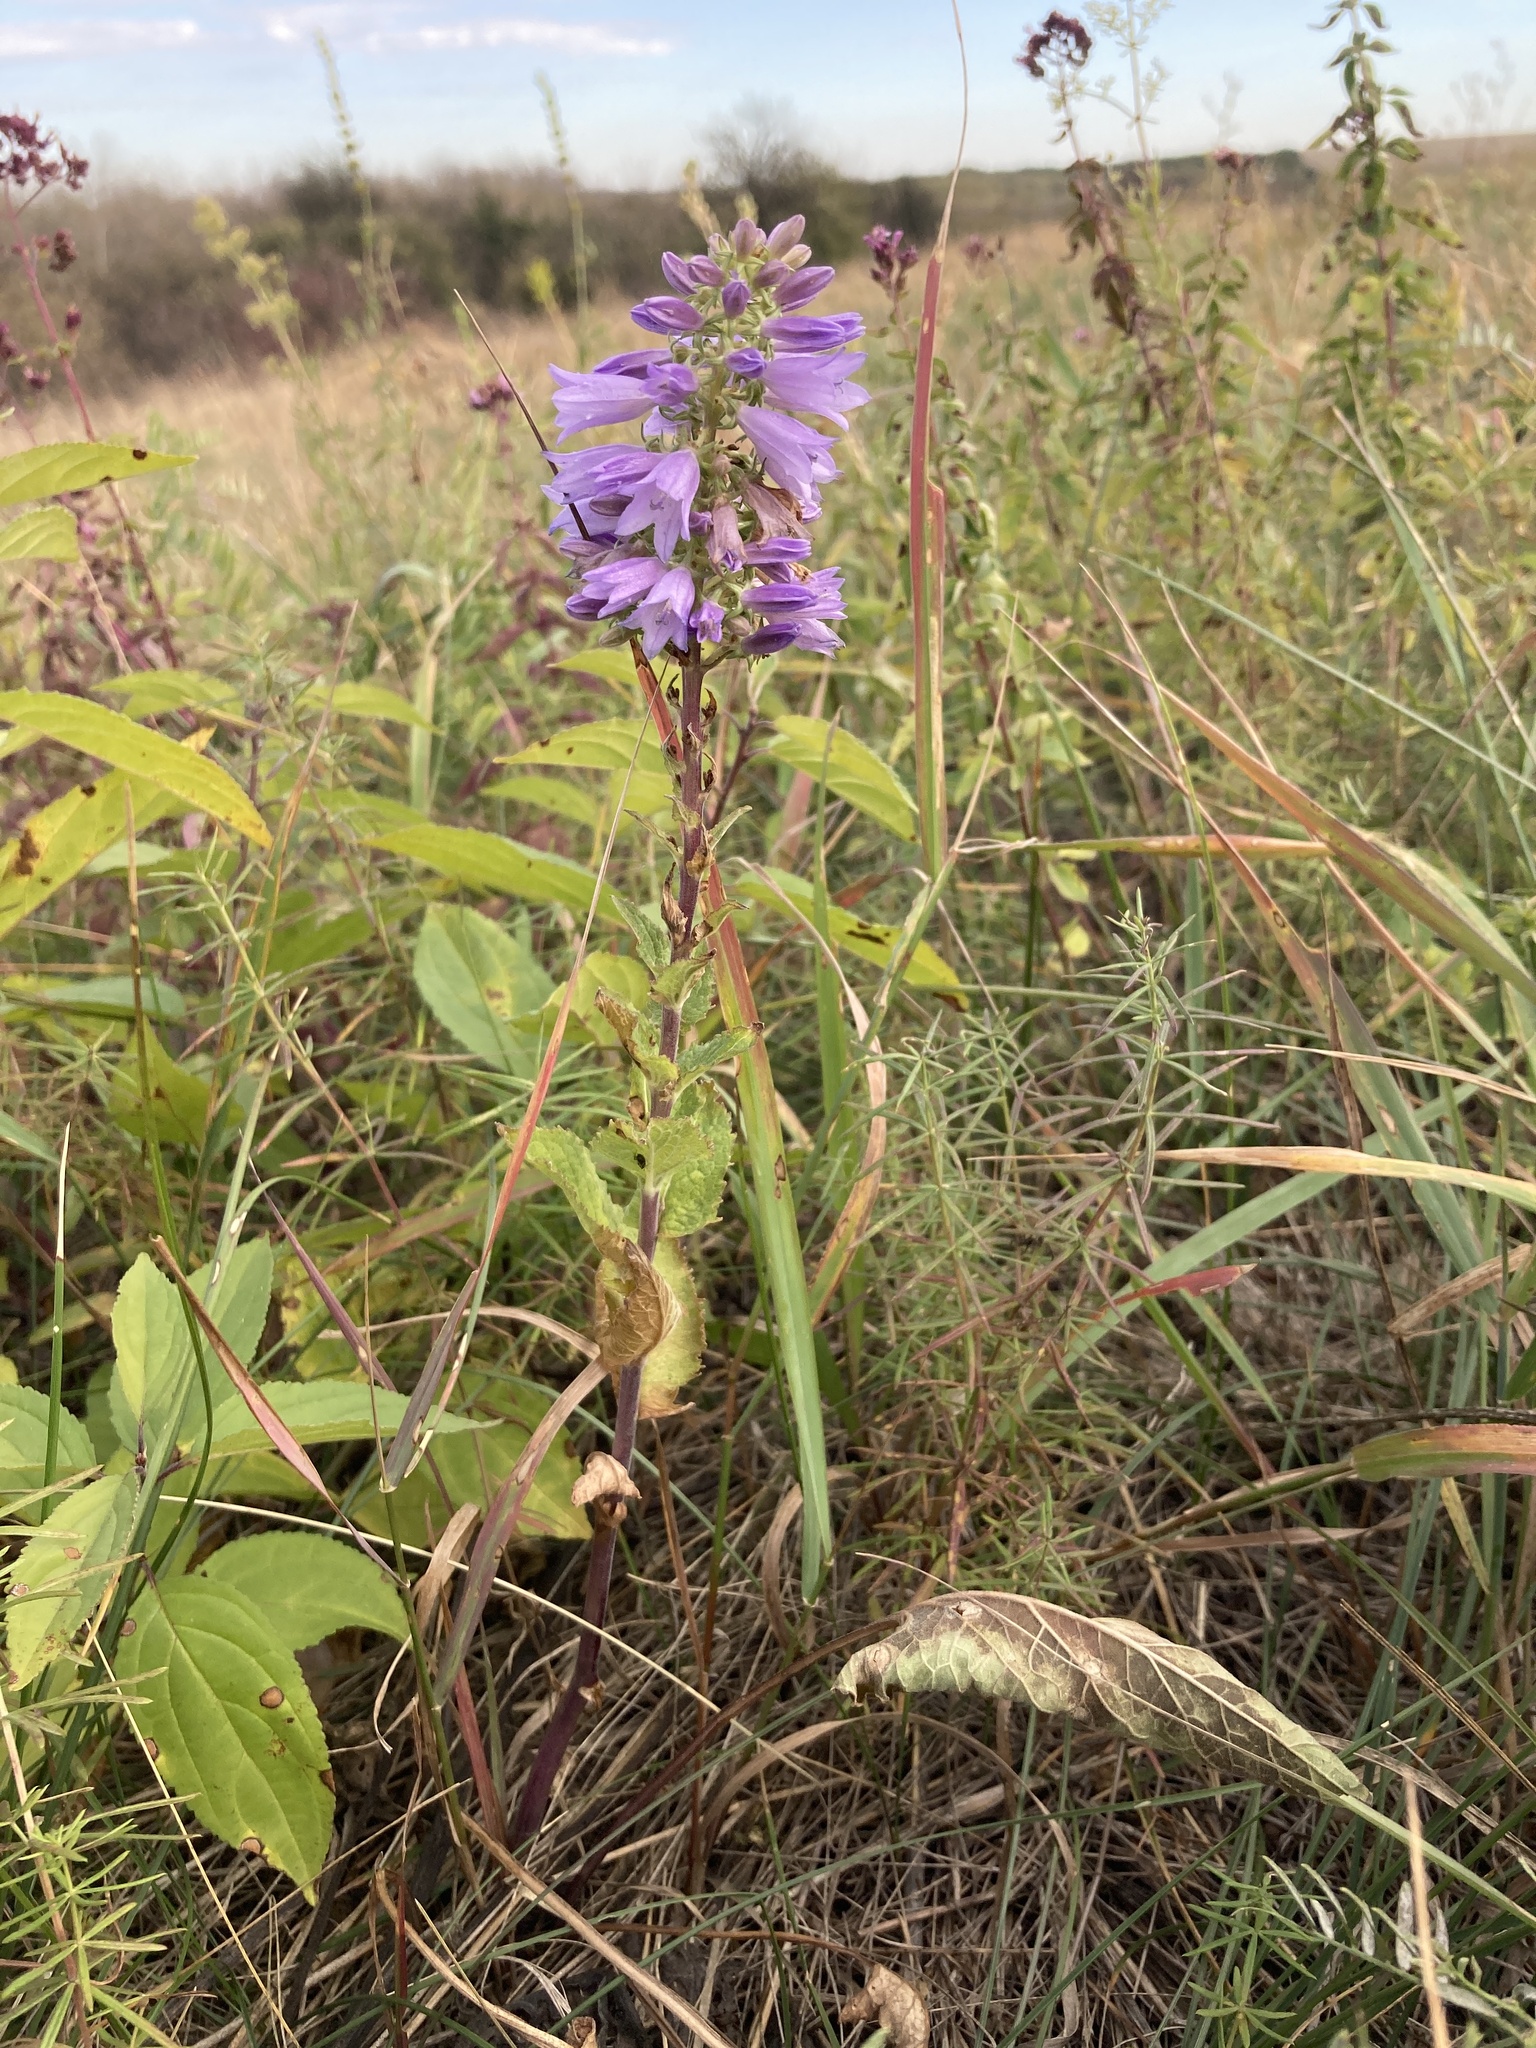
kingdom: Plantae
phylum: Tracheophyta
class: Magnoliopsida
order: Asterales
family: Campanulaceae
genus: Campanula
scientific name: Campanula bononiensis
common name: Pale bellflower
